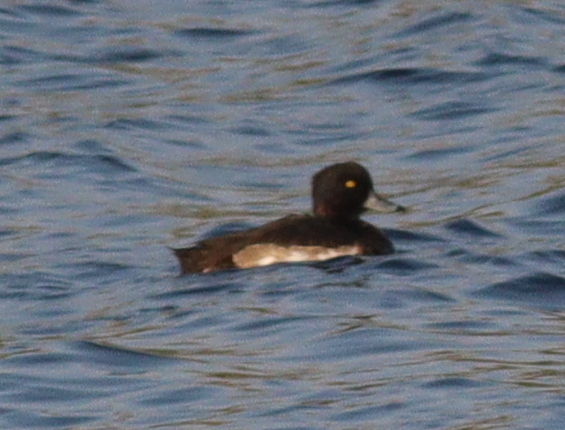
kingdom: Animalia
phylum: Chordata
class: Aves
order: Anseriformes
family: Anatidae
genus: Aythya
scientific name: Aythya fuligula
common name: Tufted duck
